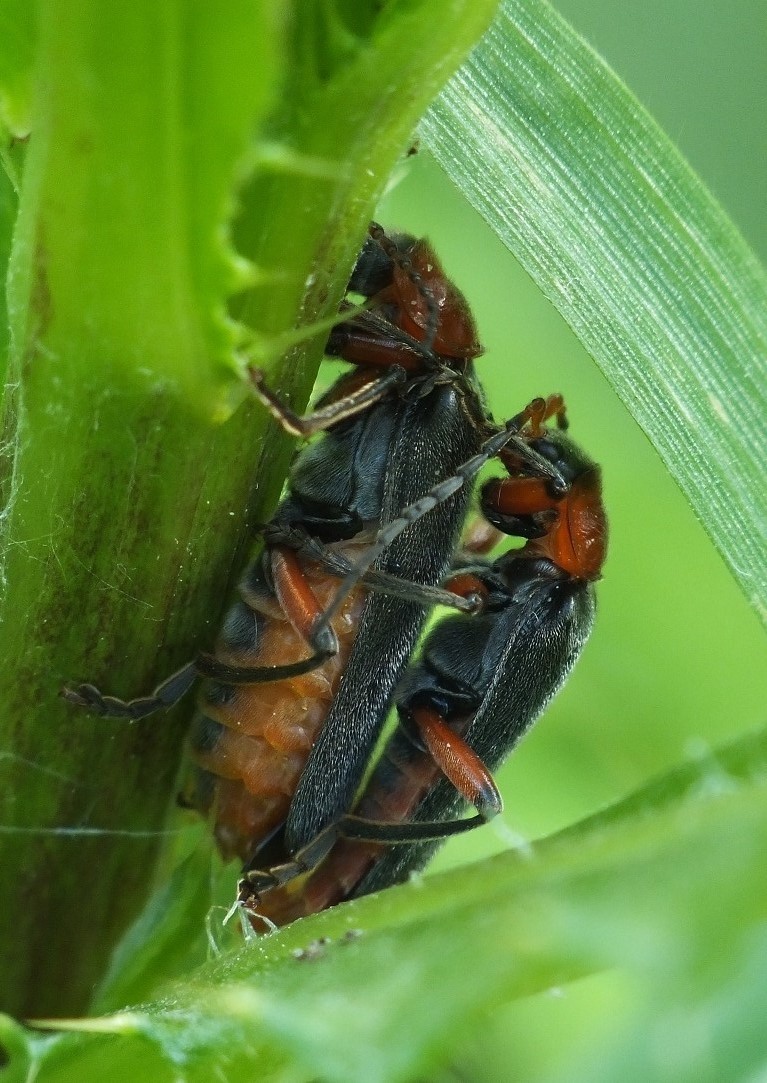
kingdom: Animalia
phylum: Arthropoda
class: Insecta
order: Coleoptera
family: Cantharidae
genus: Cantharis
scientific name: Cantharis rustica
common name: Soldier beetle
